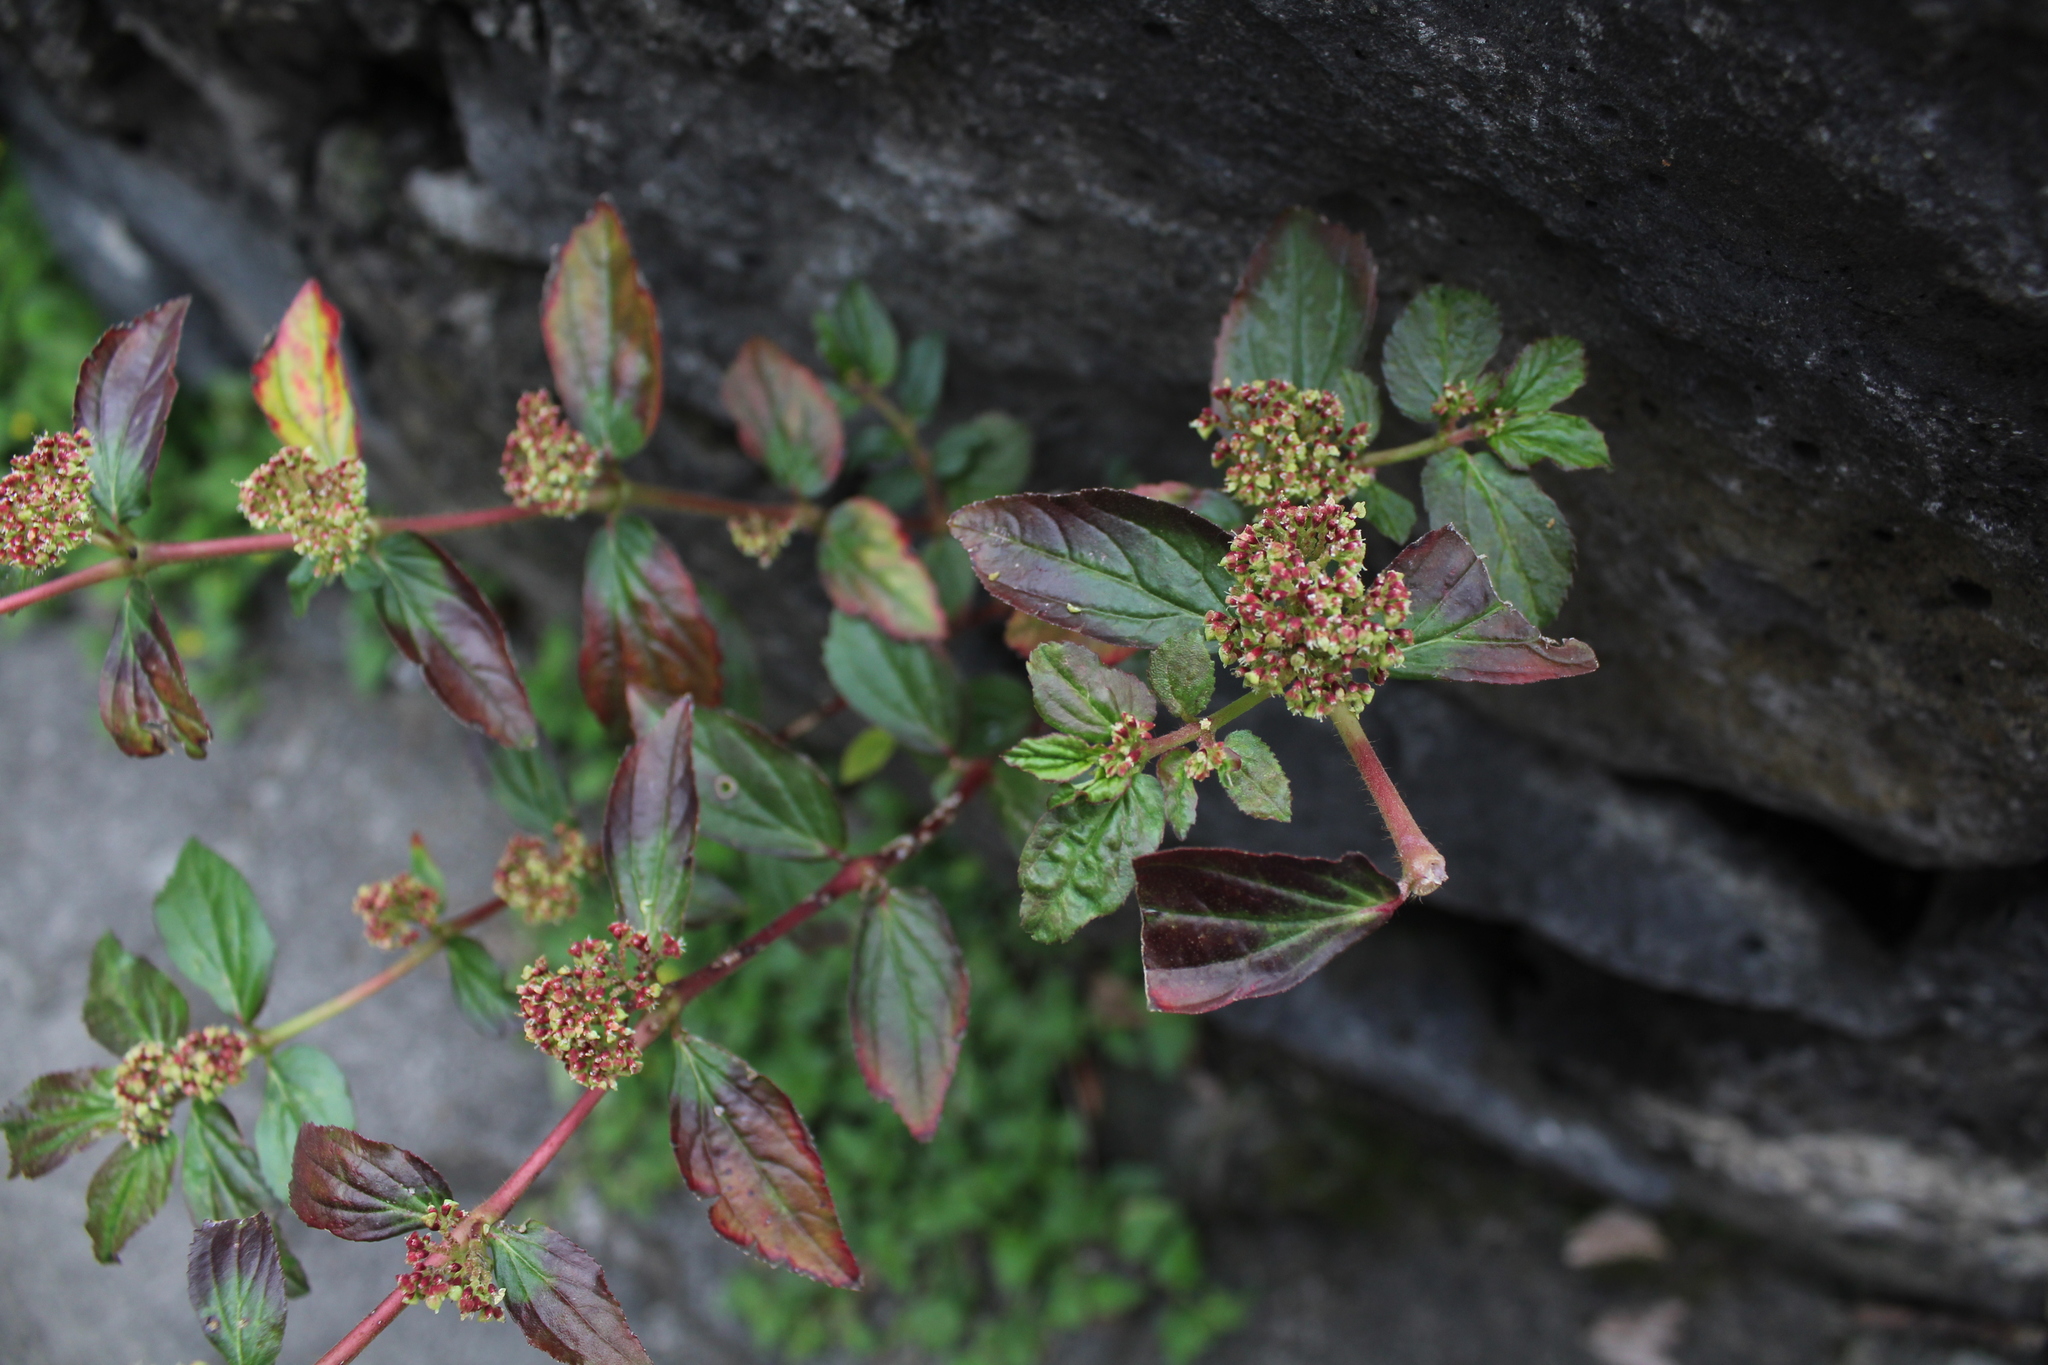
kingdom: Plantae
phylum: Tracheophyta
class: Magnoliopsida
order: Malpighiales
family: Euphorbiaceae
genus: Euphorbia
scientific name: Euphorbia hirta
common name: Pillpod sandmat
